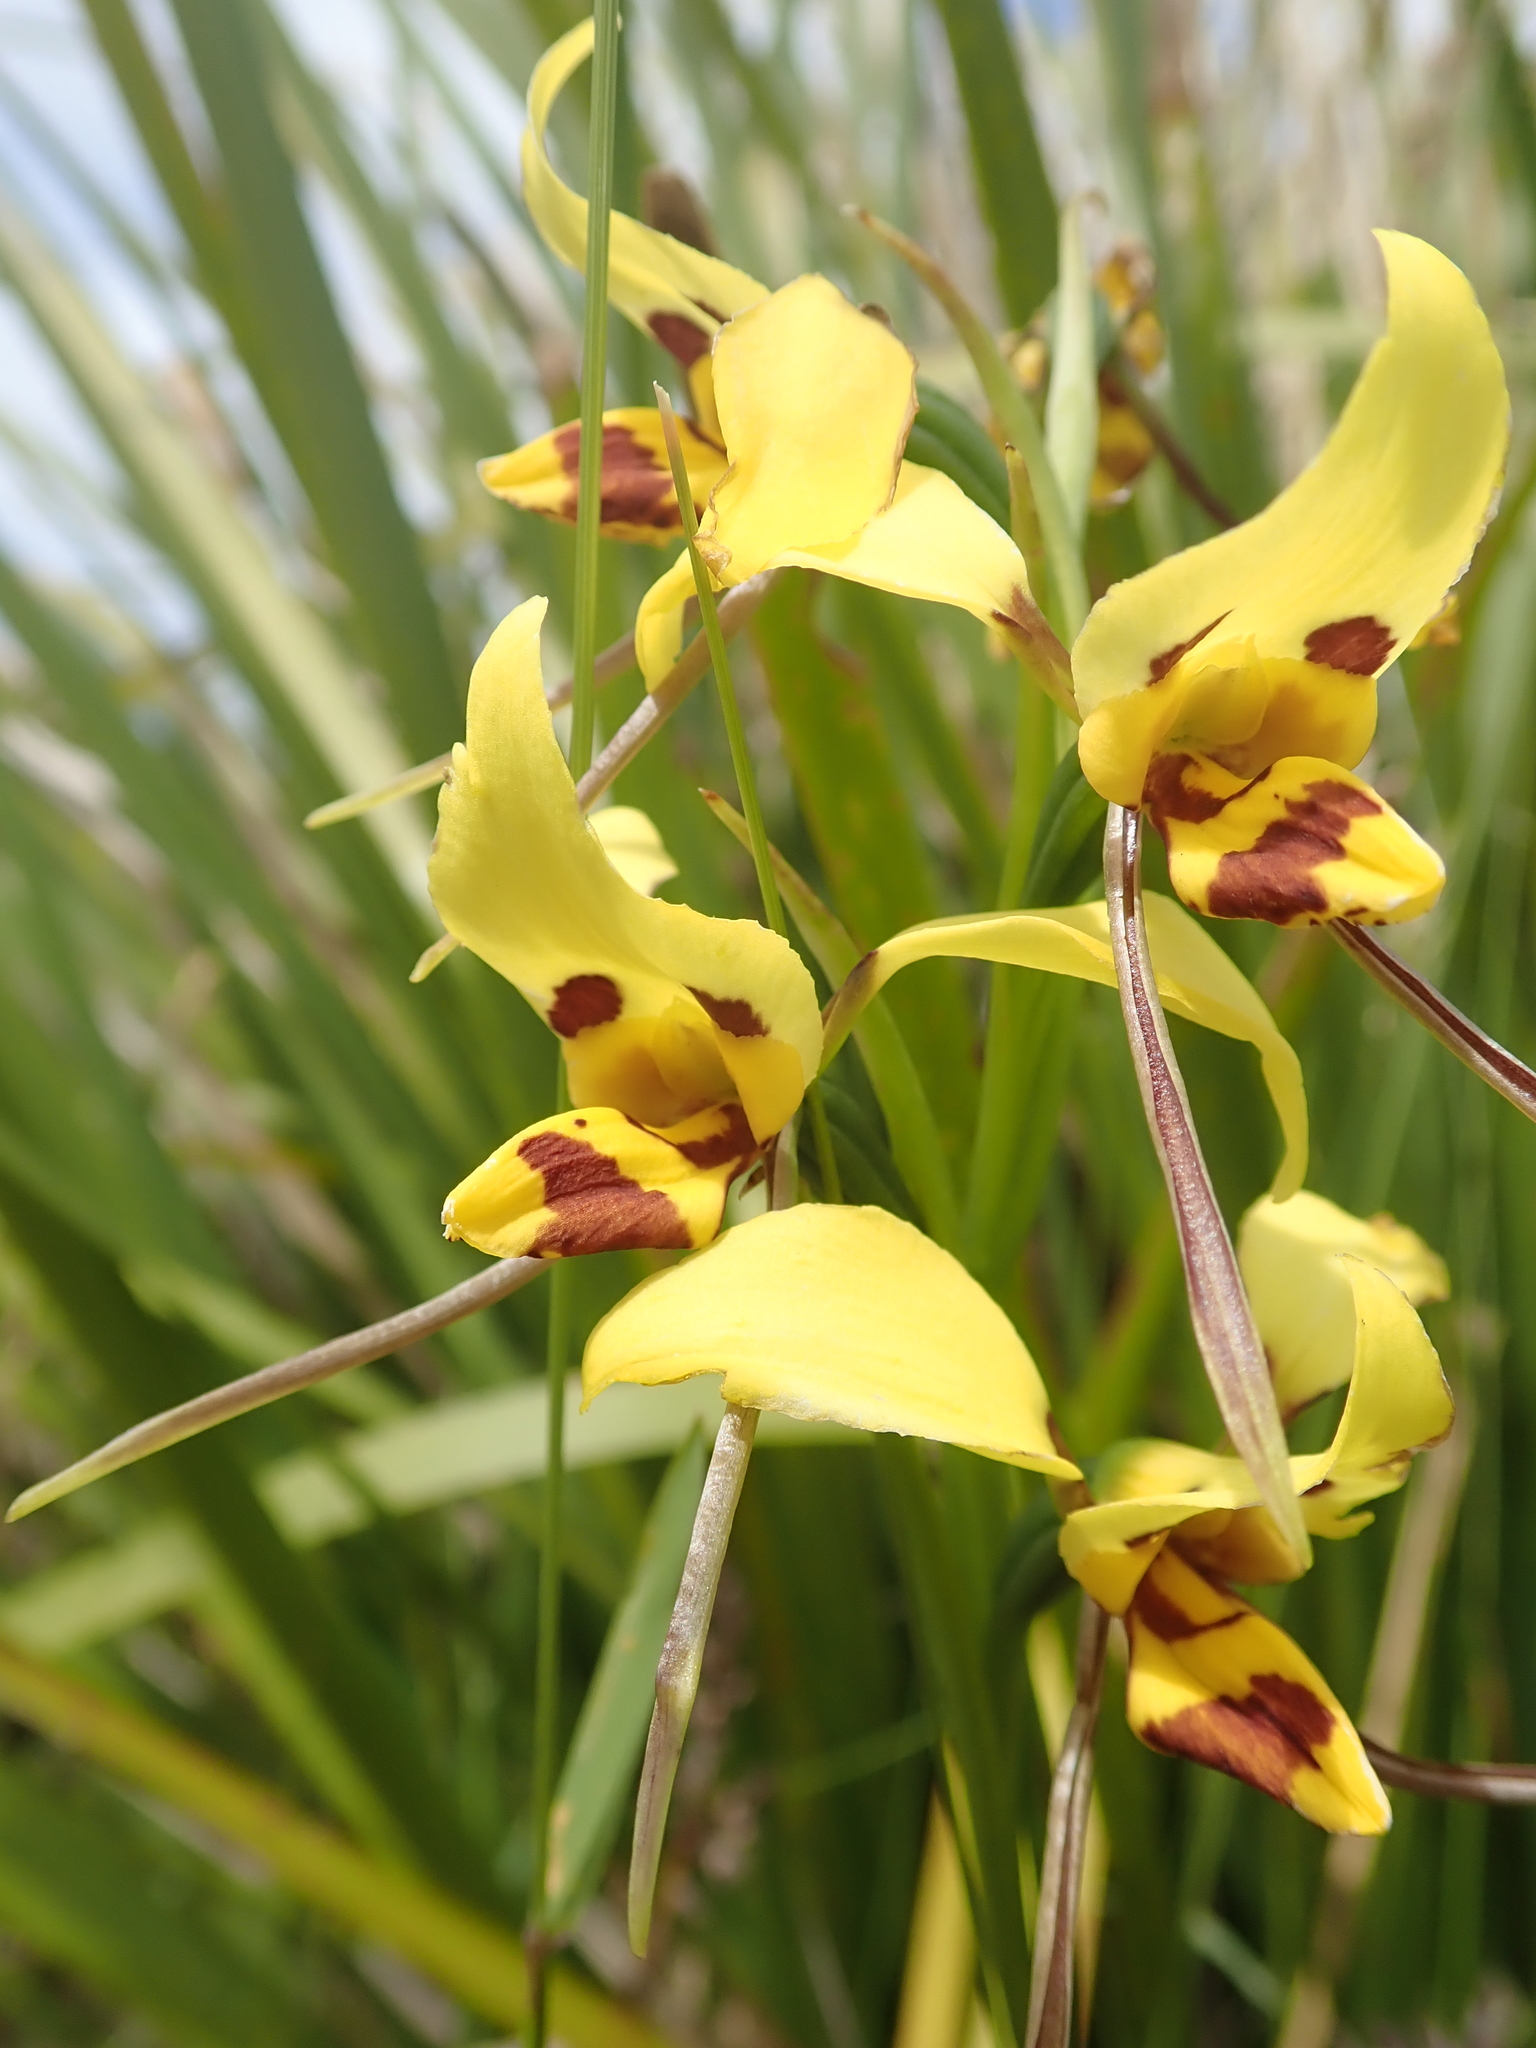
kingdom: Plantae
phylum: Tracheophyta
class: Liliopsida
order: Asparagales
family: Orchidaceae
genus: Diuris
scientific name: Diuris sulphurea
